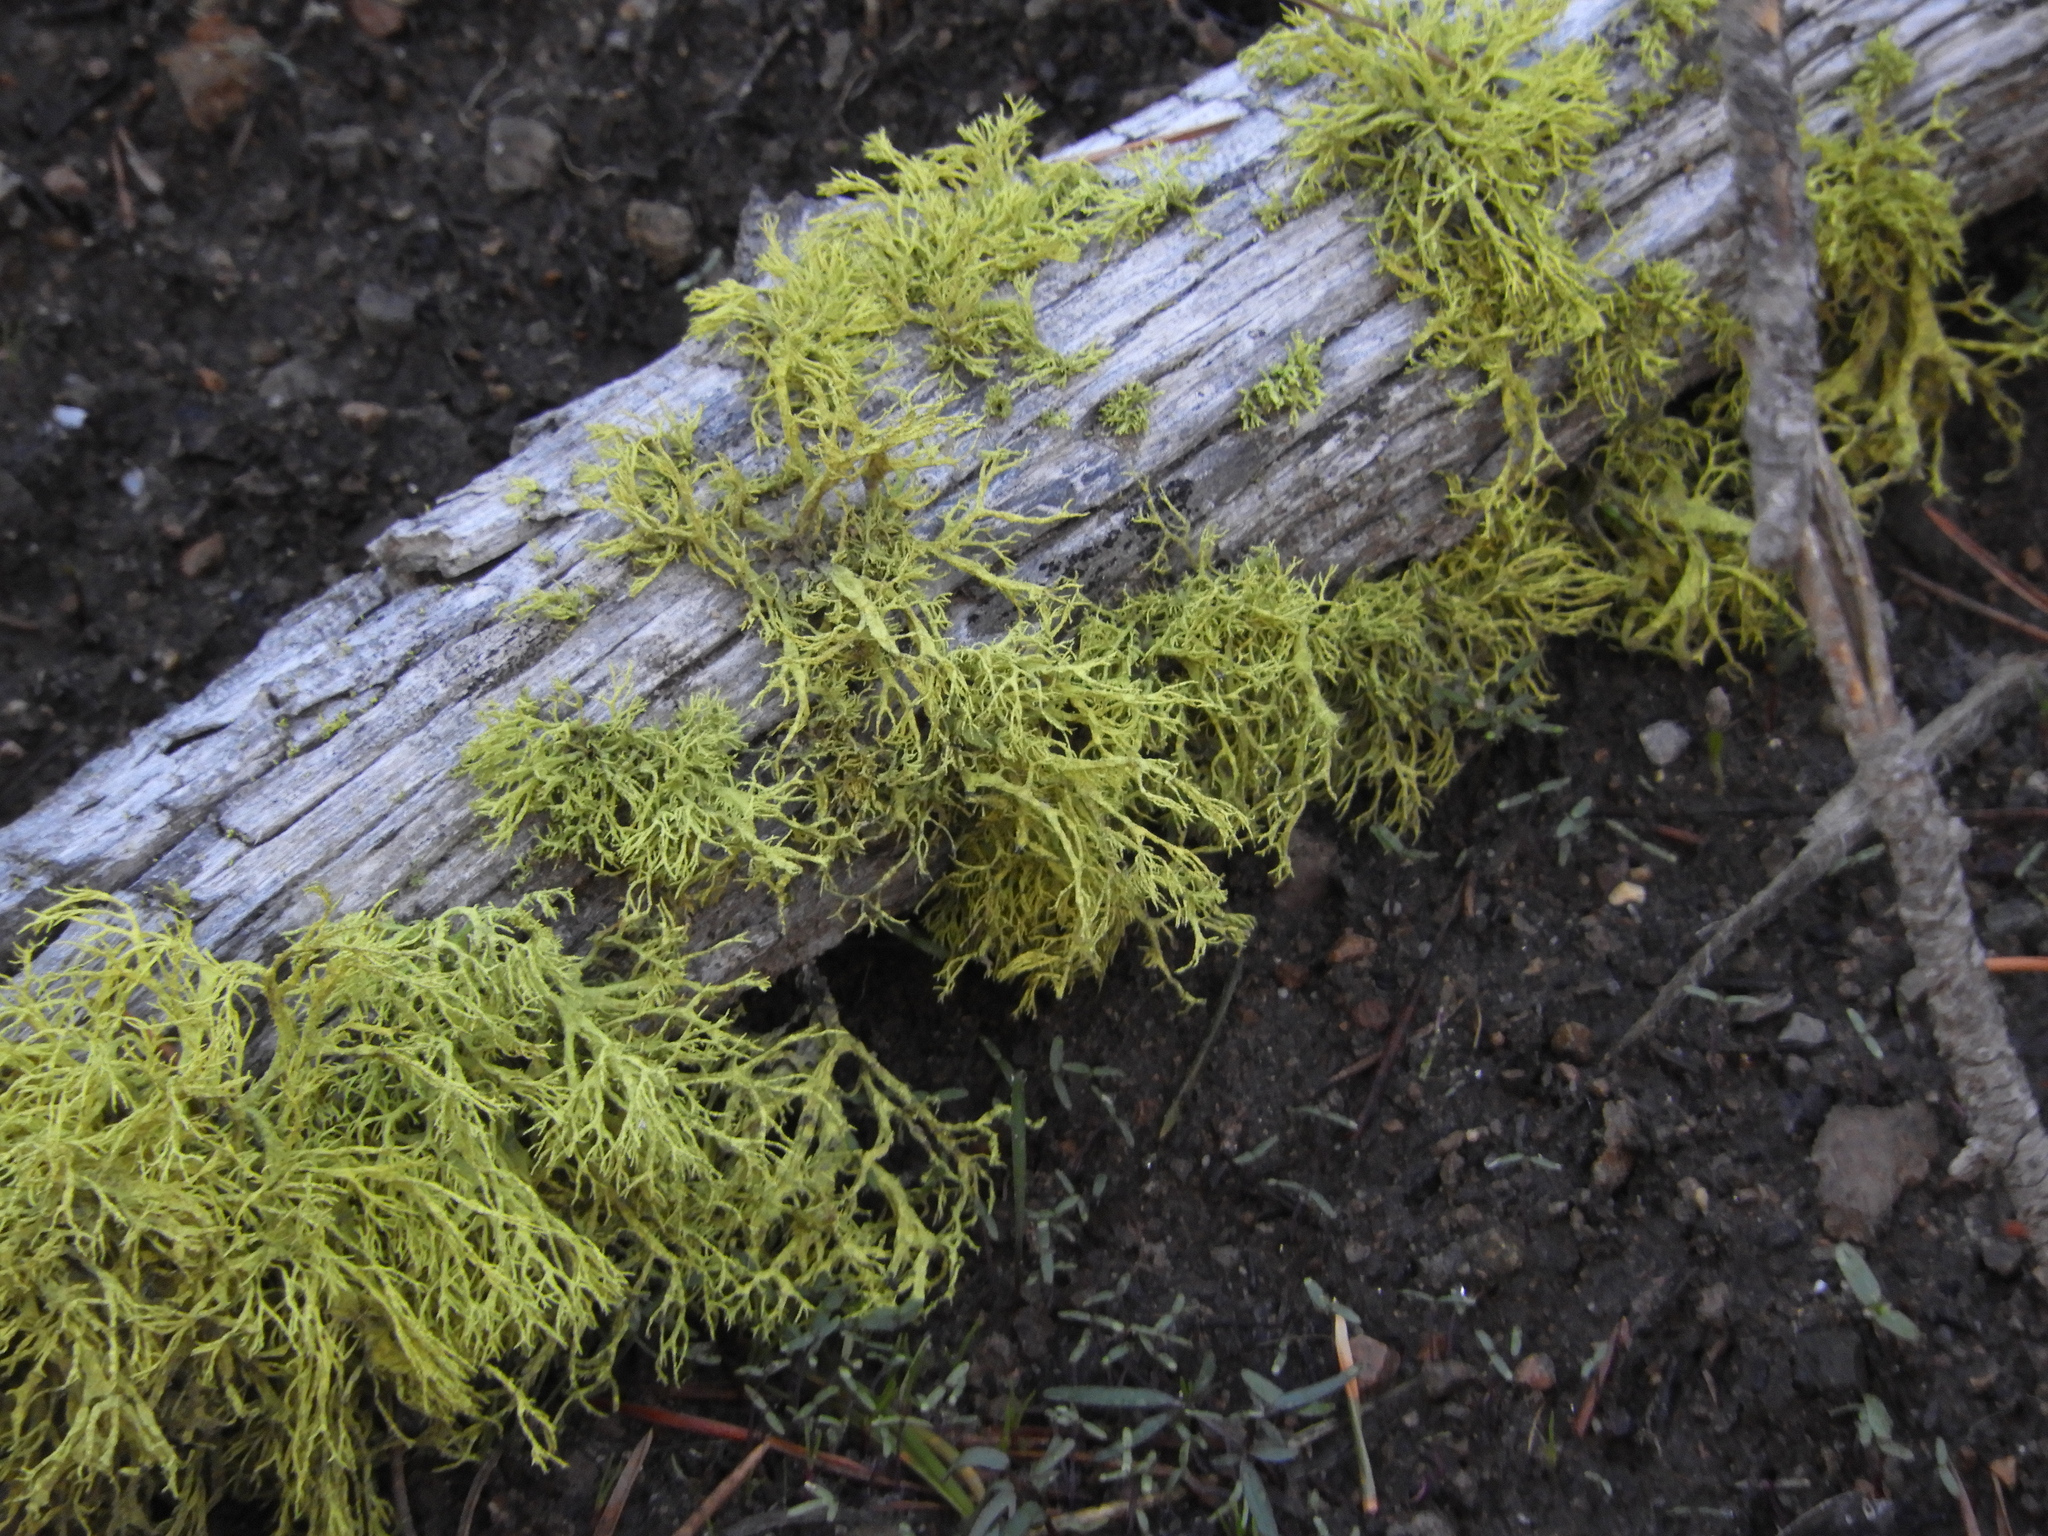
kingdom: Fungi
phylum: Ascomycota
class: Lecanoromycetes
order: Lecanorales
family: Parmeliaceae
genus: Letharia
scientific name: Letharia vulpina
